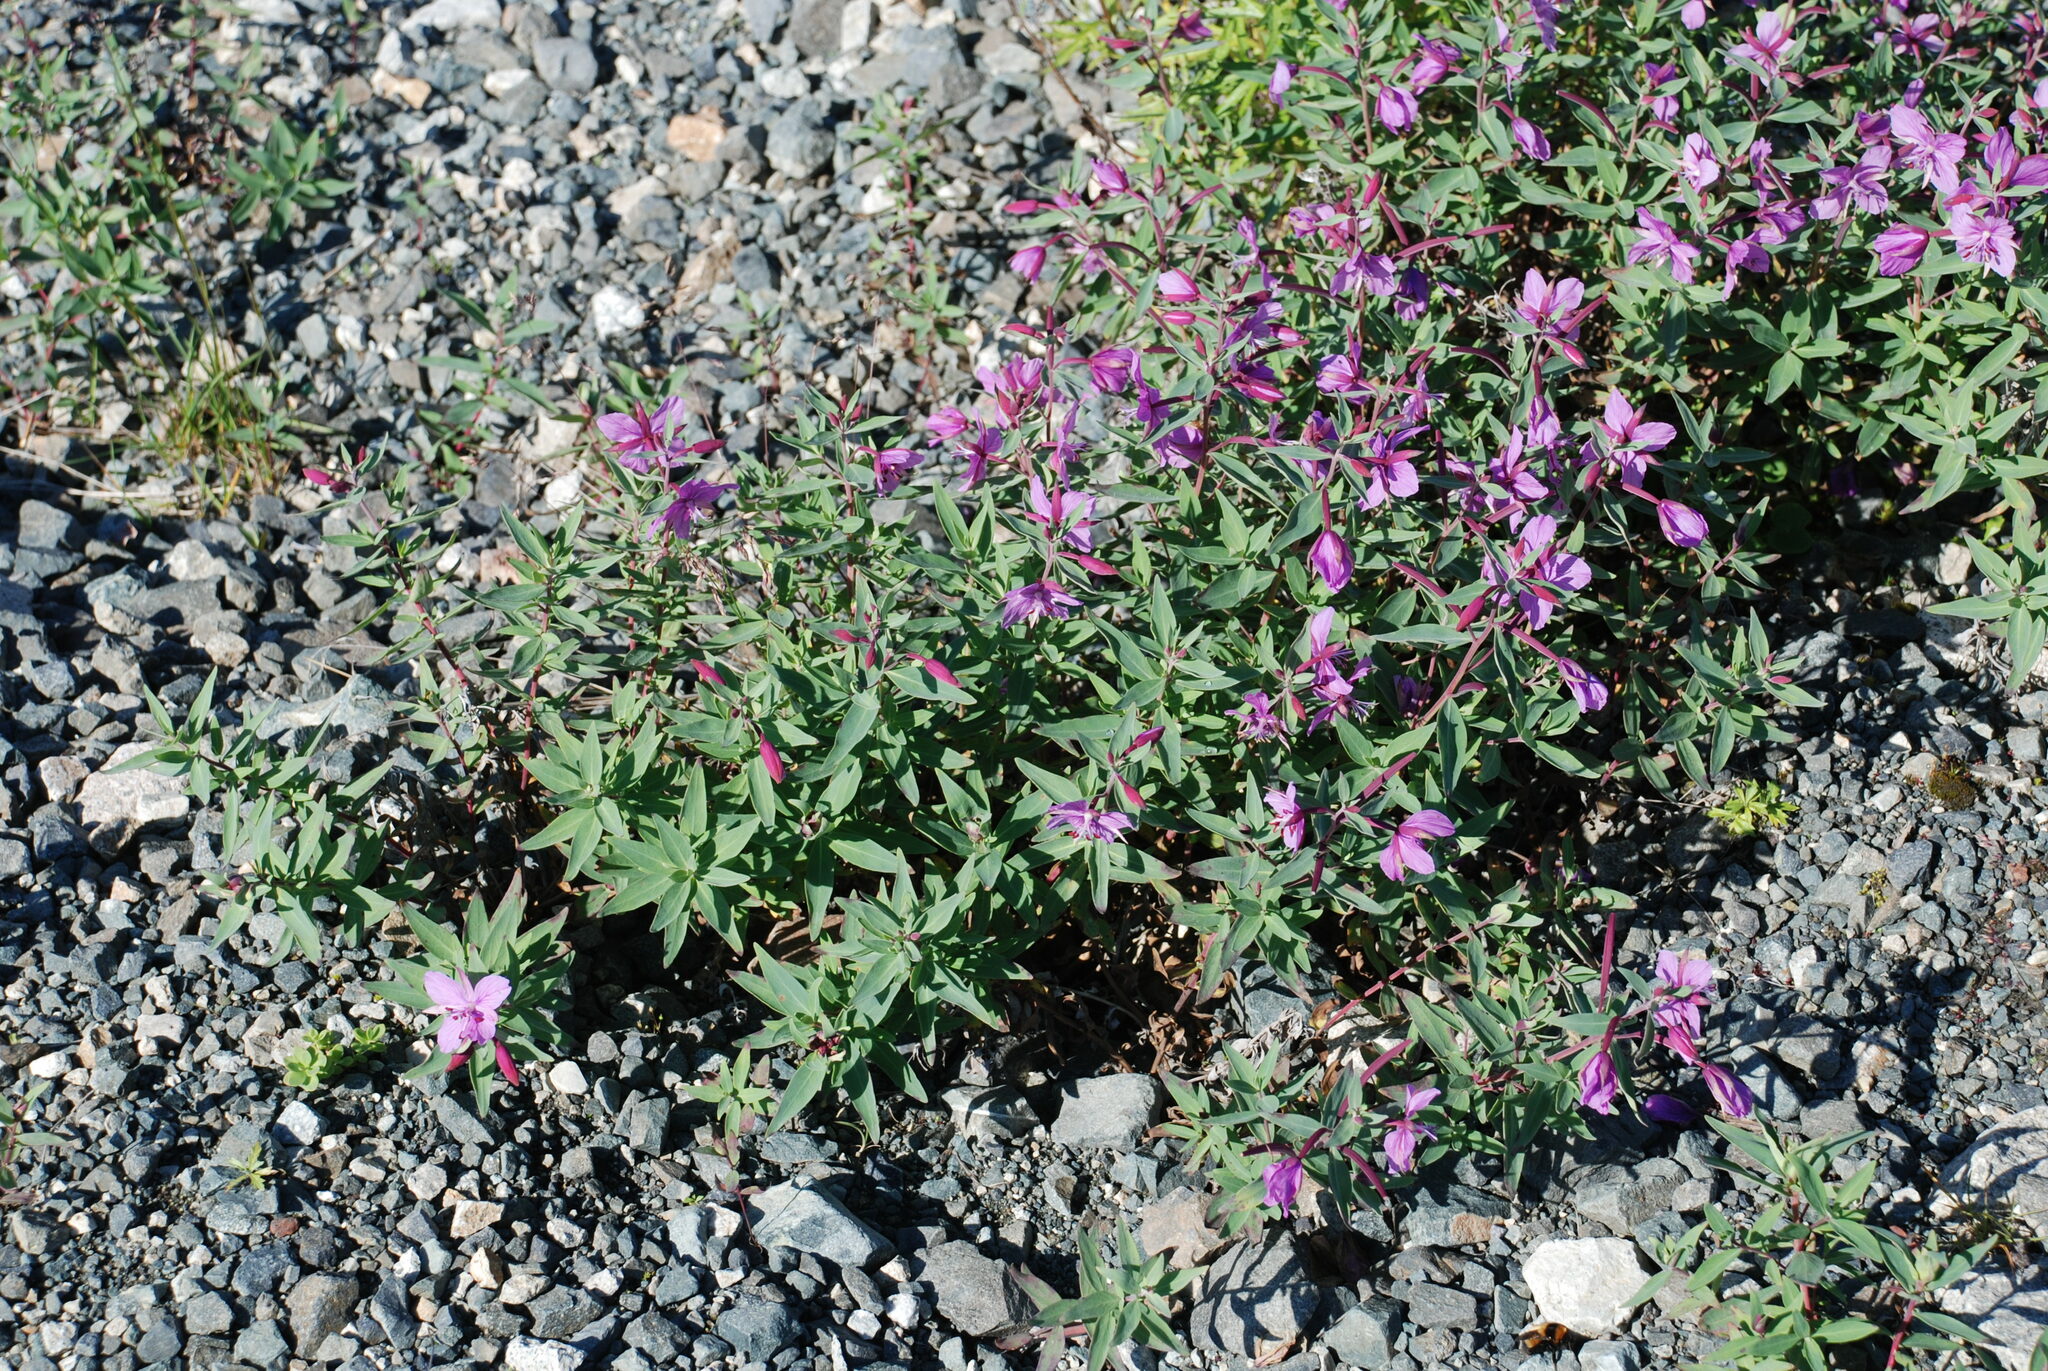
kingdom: Plantae
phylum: Tracheophyta
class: Magnoliopsida
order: Myrtales
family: Onagraceae
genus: Chamaenerion
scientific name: Chamaenerion latifolium
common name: Dwarf fireweed
